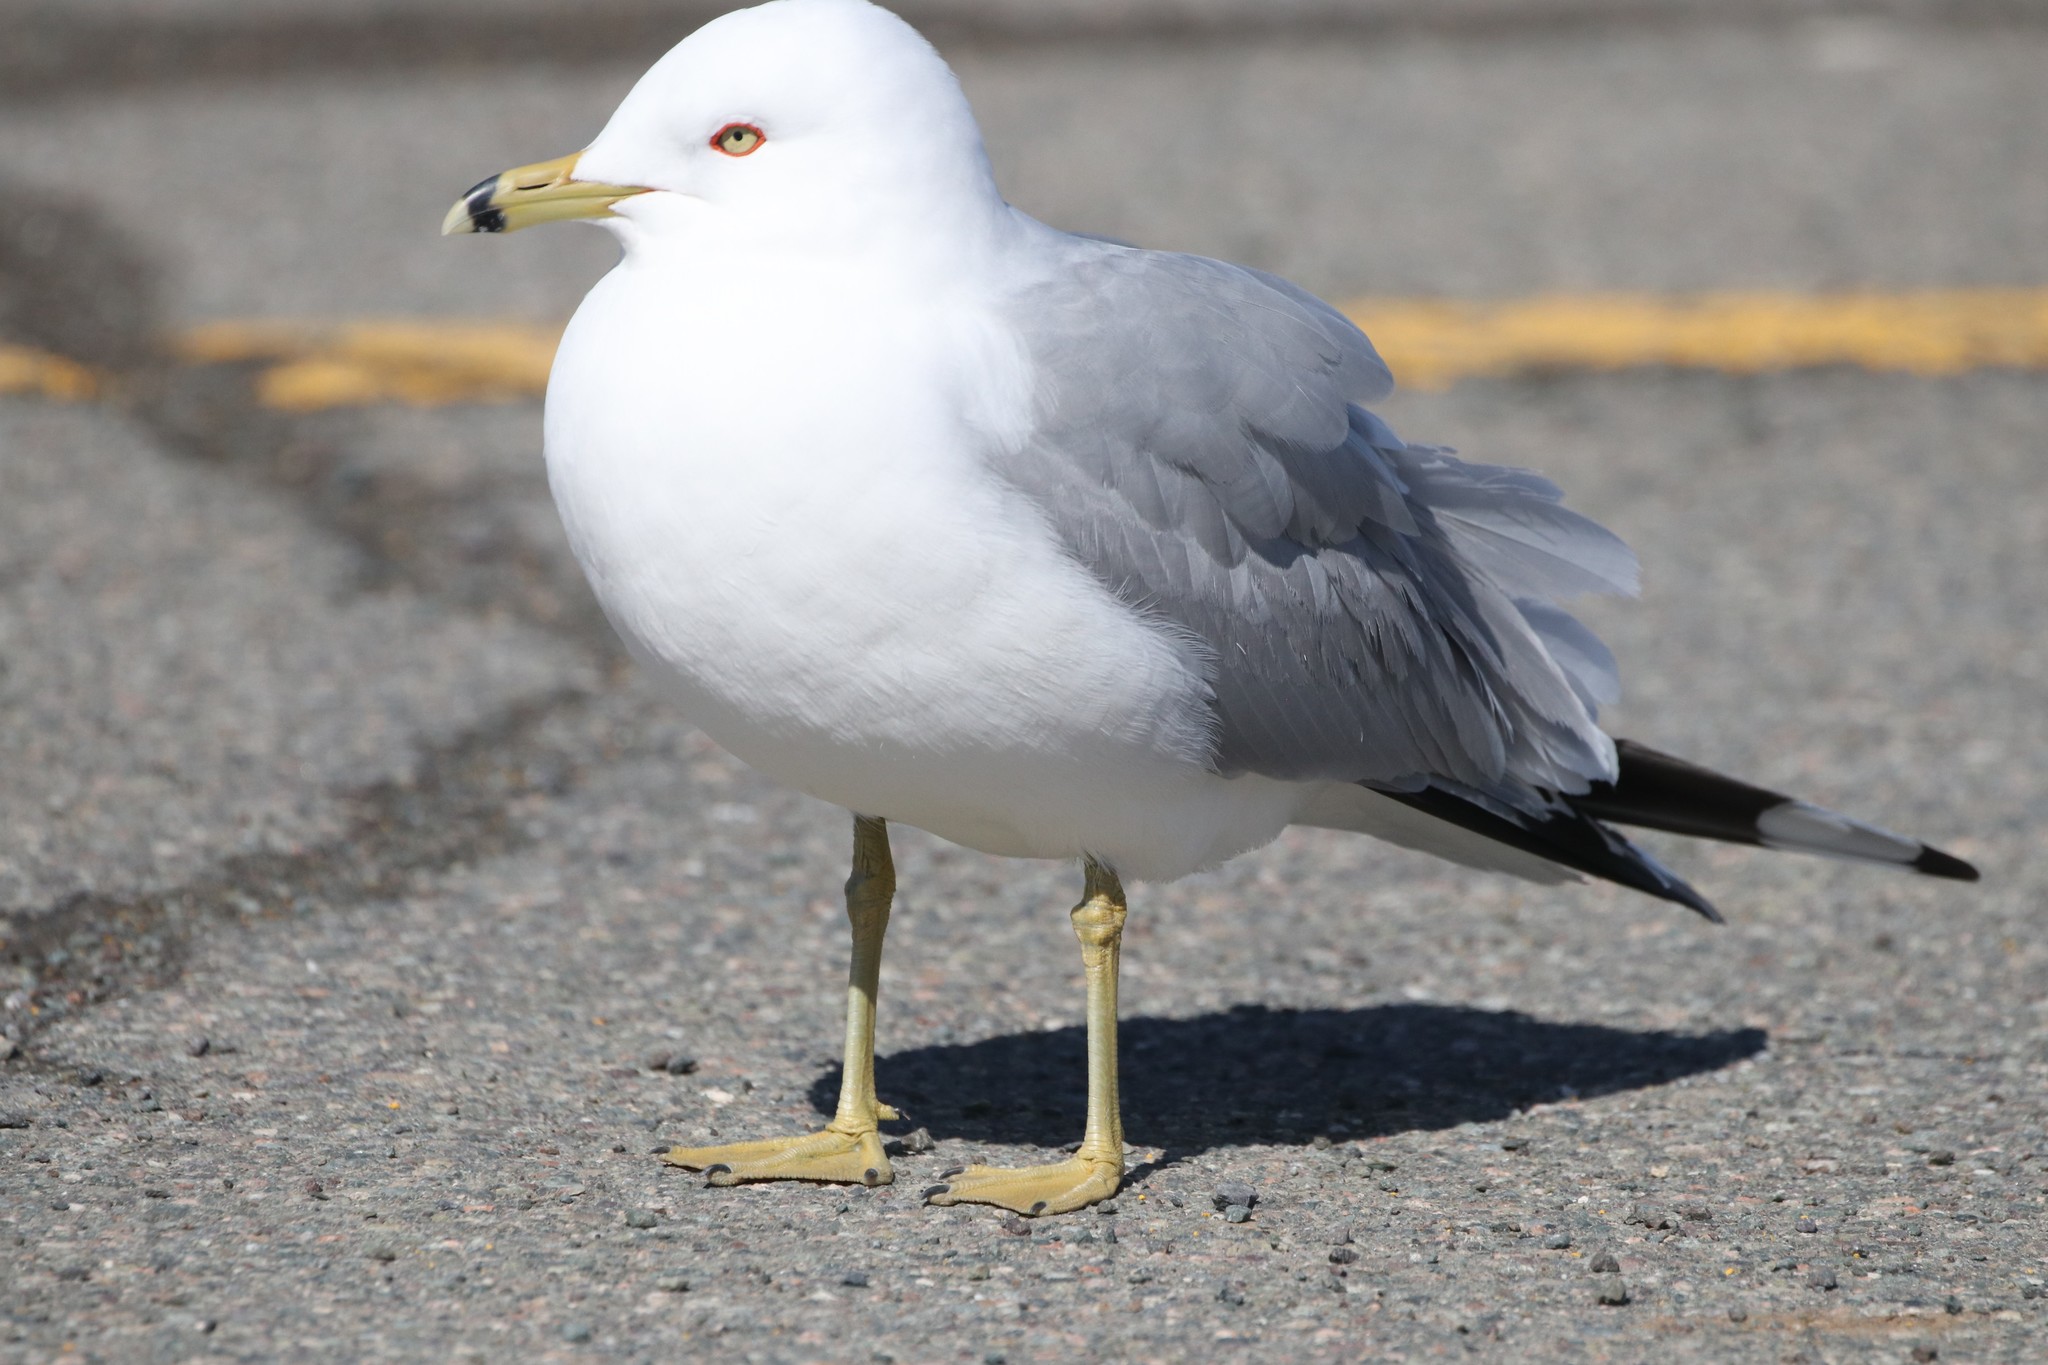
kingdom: Animalia
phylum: Chordata
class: Aves
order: Charadriiformes
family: Laridae
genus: Larus
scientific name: Larus delawarensis
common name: Ring-billed gull
